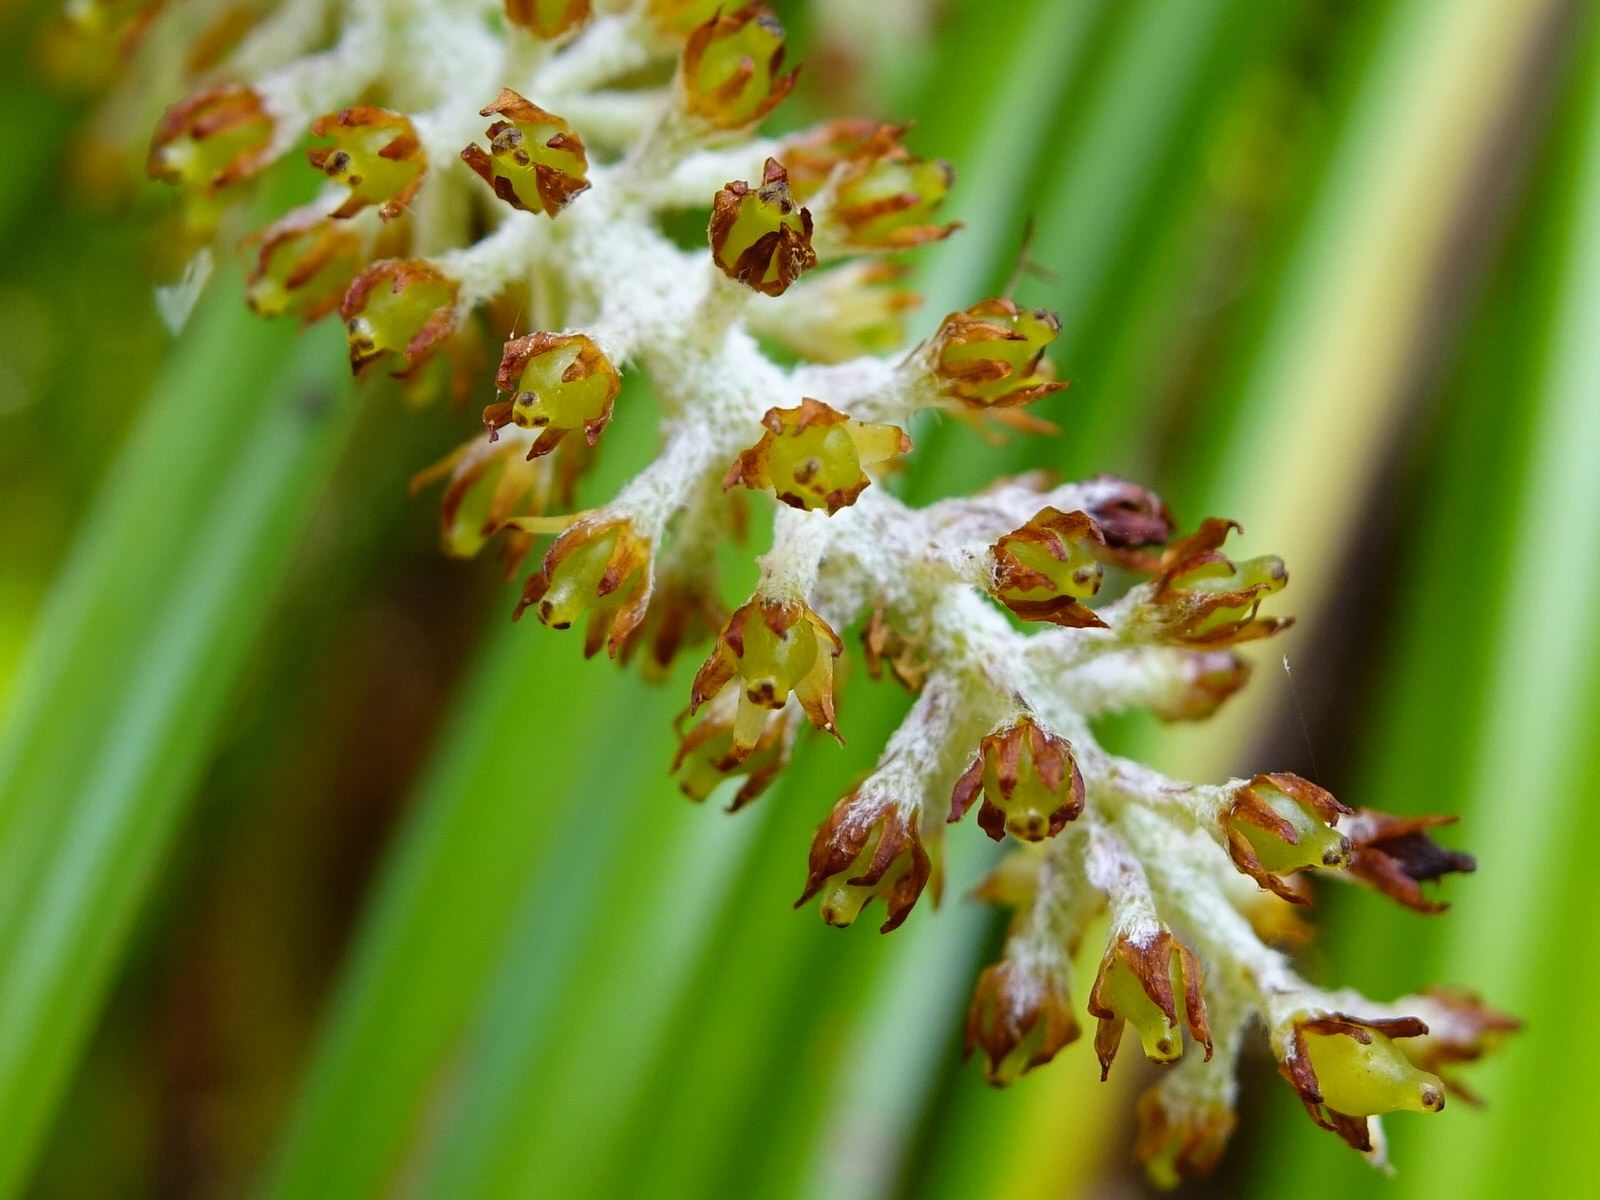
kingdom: Plantae
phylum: Tracheophyta
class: Liliopsida
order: Asparagales
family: Asteliaceae
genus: Astelia
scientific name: Astelia solandri
